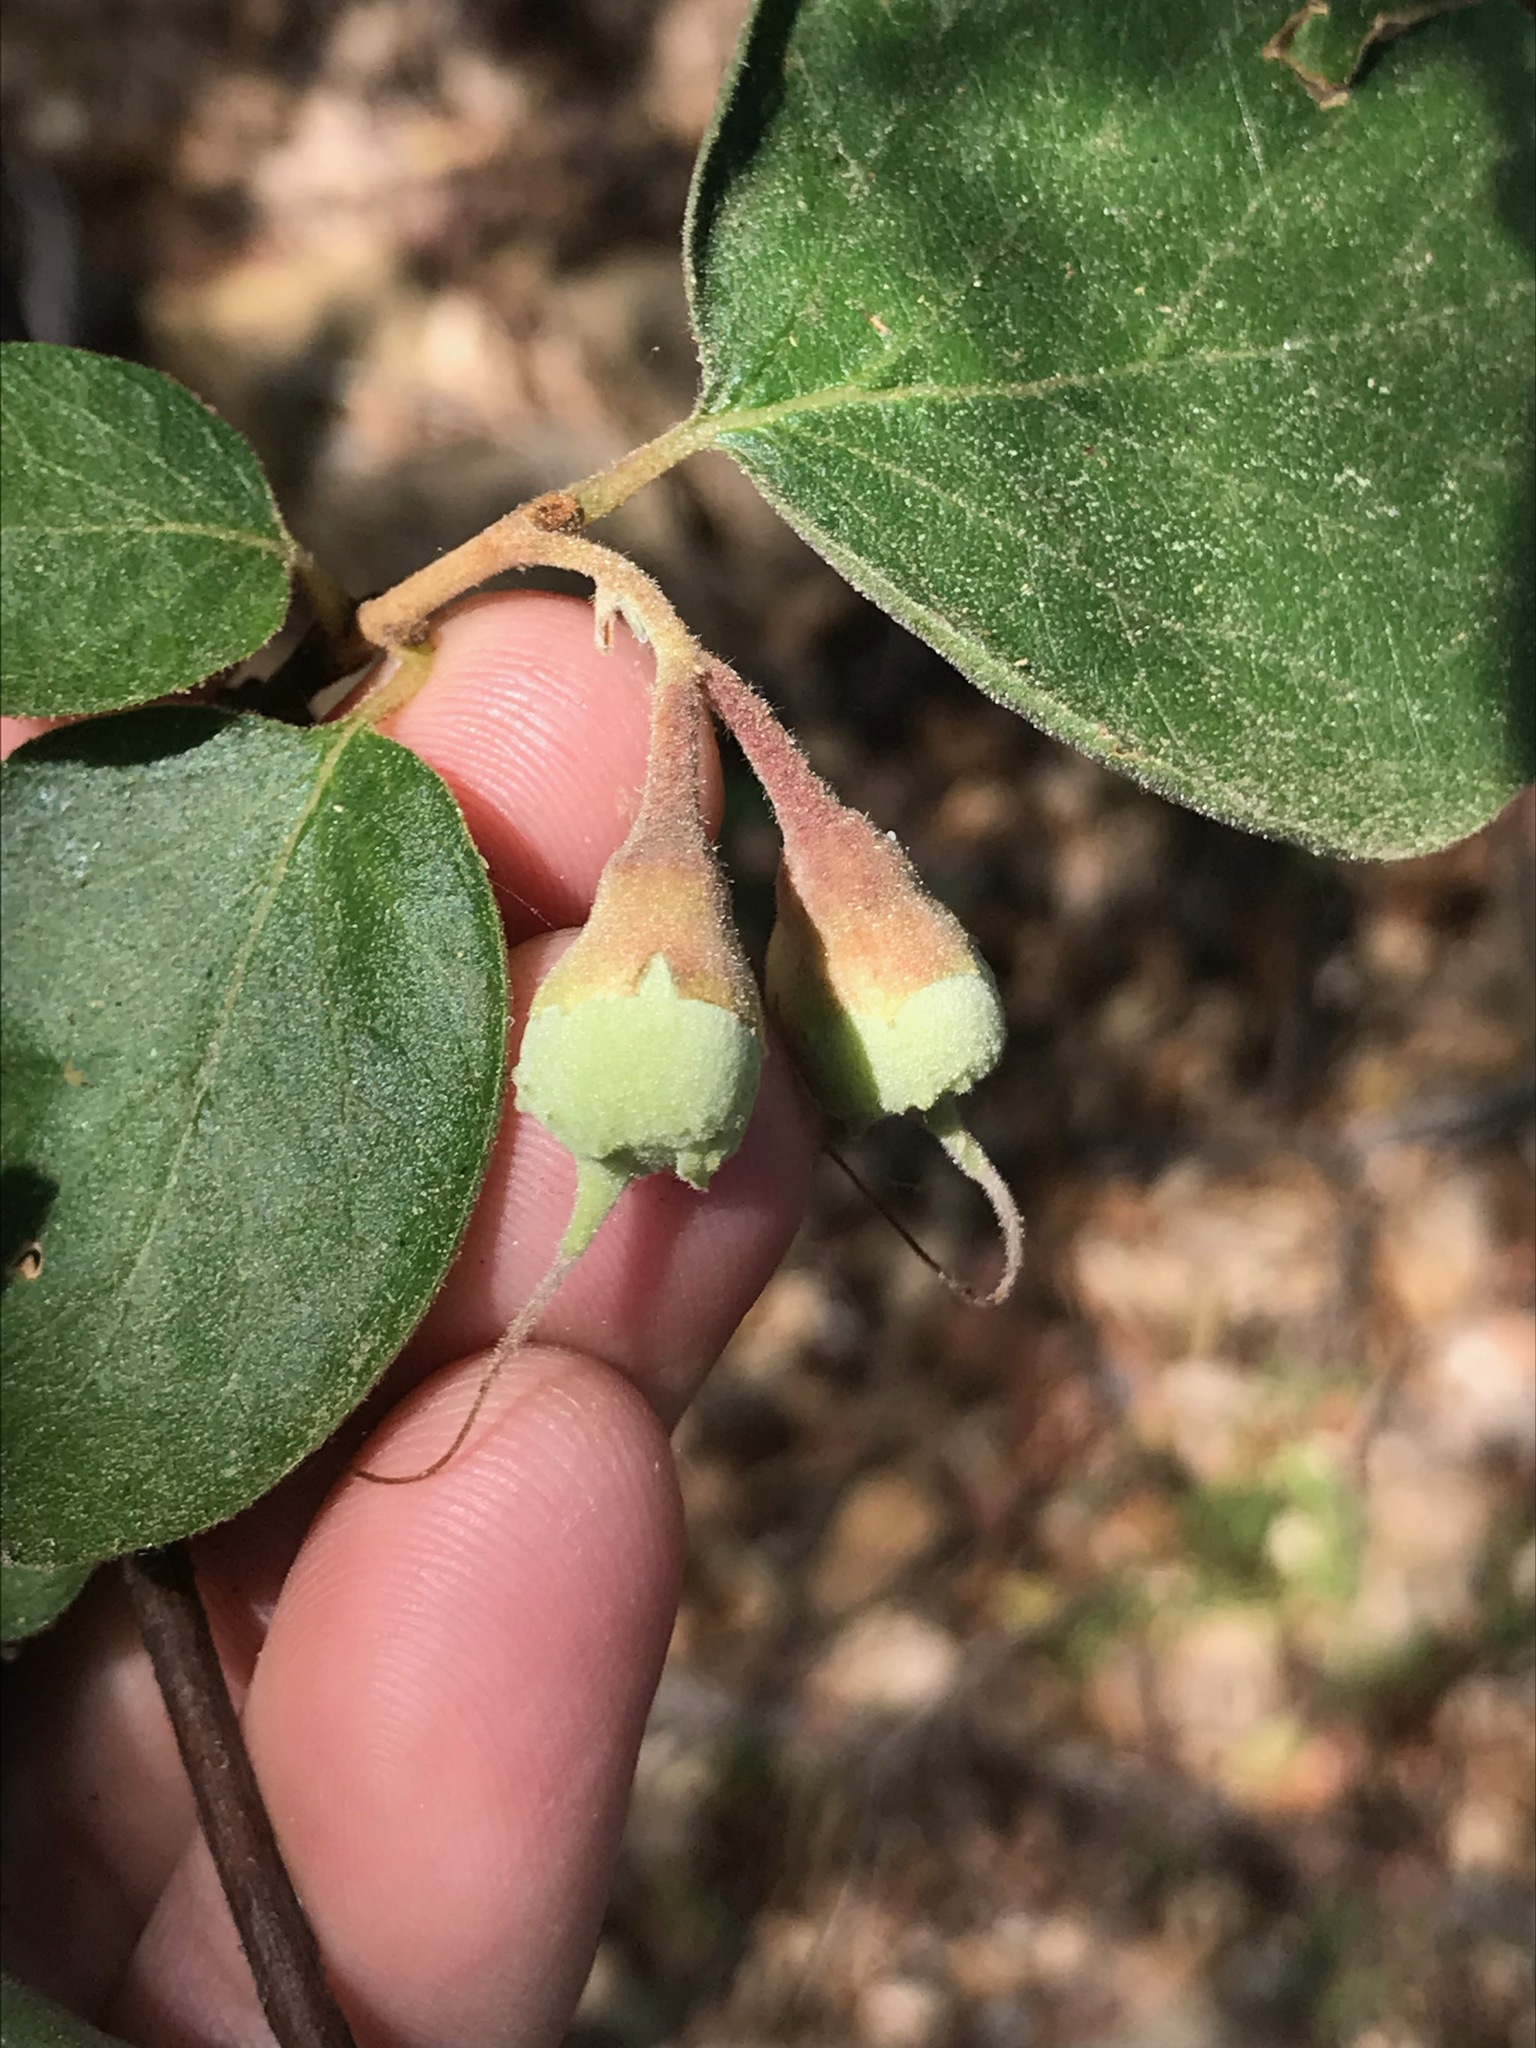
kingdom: Plantae
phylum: Tracheophyta
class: Magnoliopsida
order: Ericales
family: Styracaceae
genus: Styrax
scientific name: Styrax redivivus
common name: California styrax
